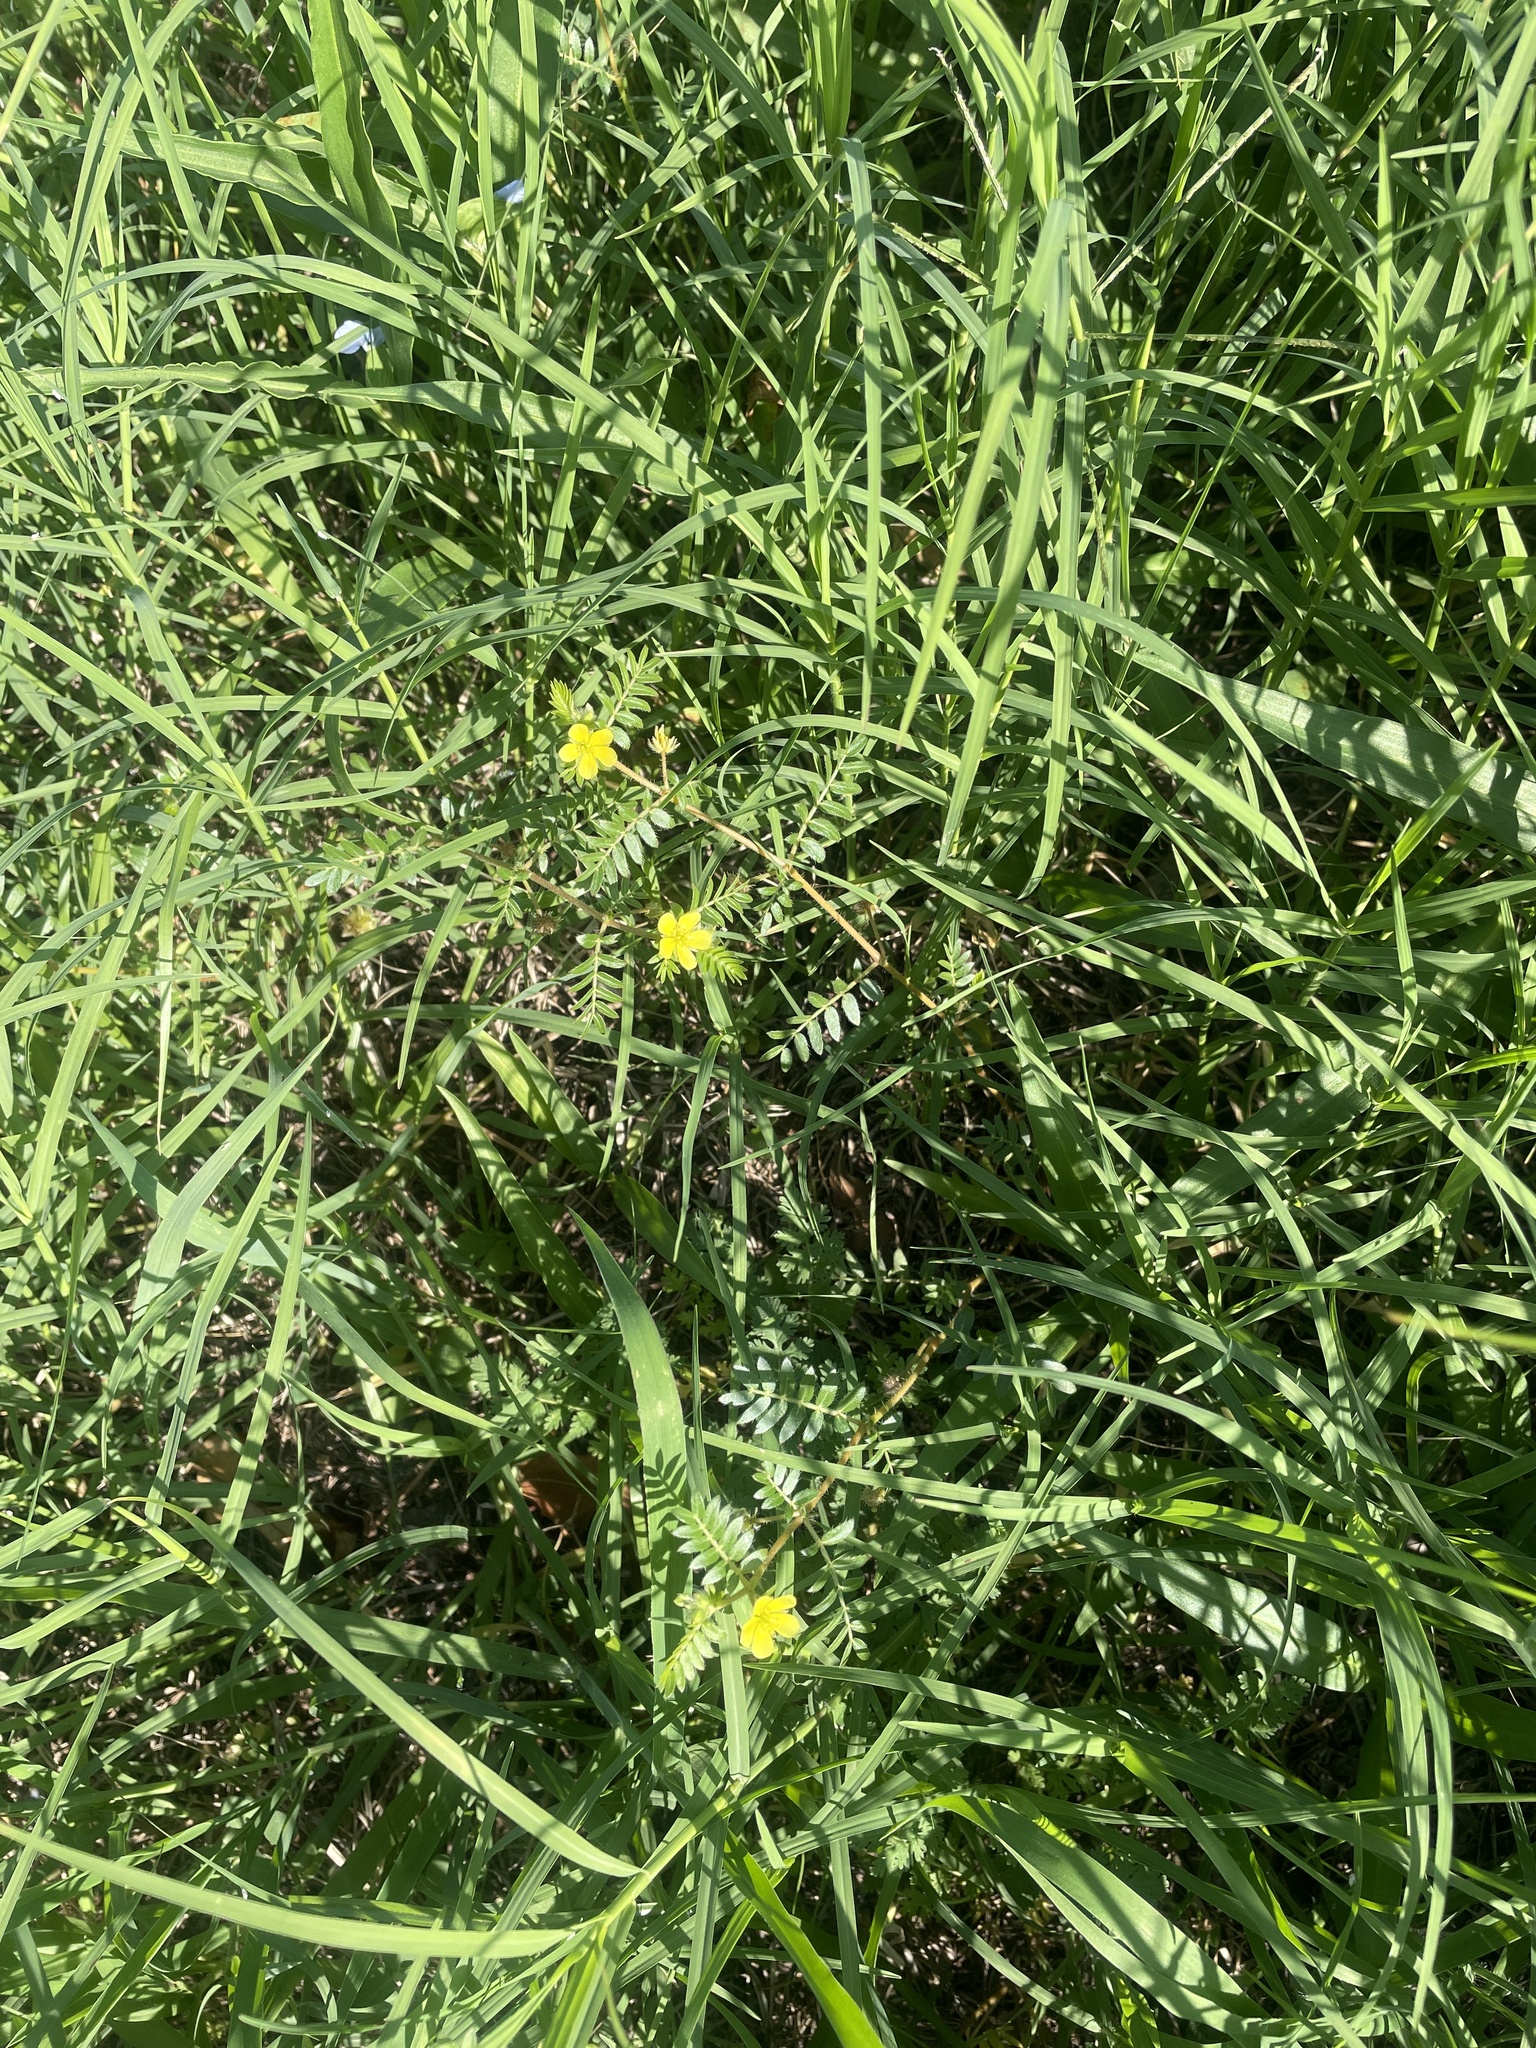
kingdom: Plantae
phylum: Tracheophyta
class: Magnoliopsida
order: Zygophyllales
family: Zygophyllaceae
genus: Tribulus
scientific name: Tribulus terrestris
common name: Puncturevine
